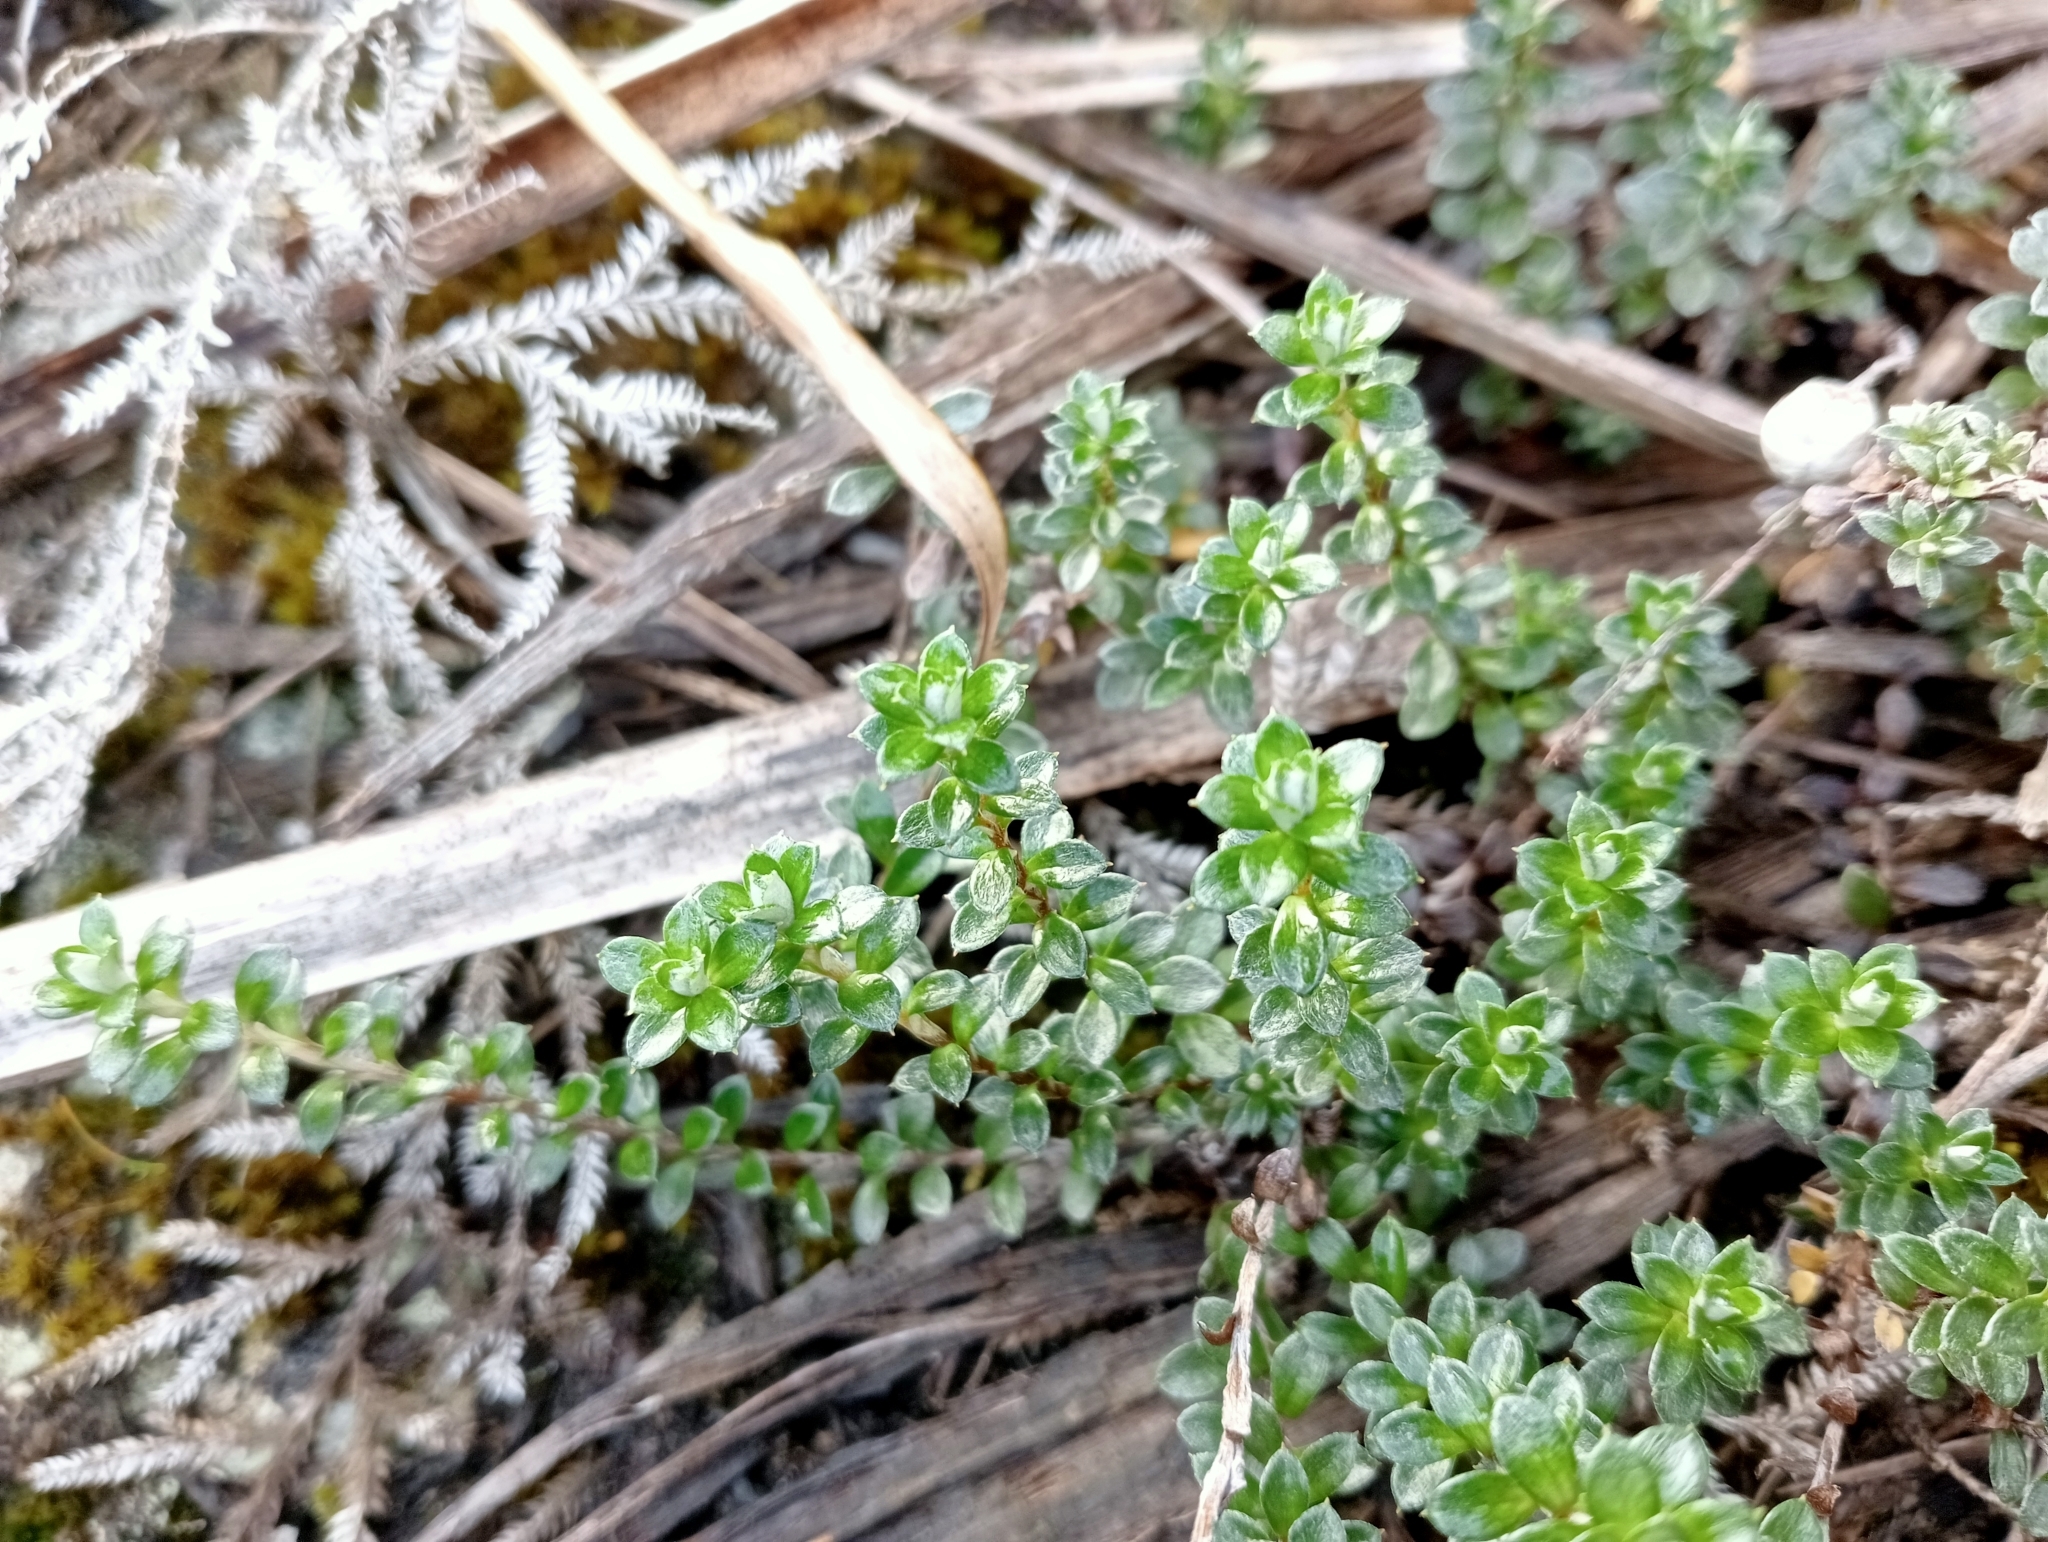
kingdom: Plantae
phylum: Tracheophyta
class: Magnoliopsida
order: Asterales
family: Asteraceae
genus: Anaphalioides
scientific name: Anaphalioides bellidioides
